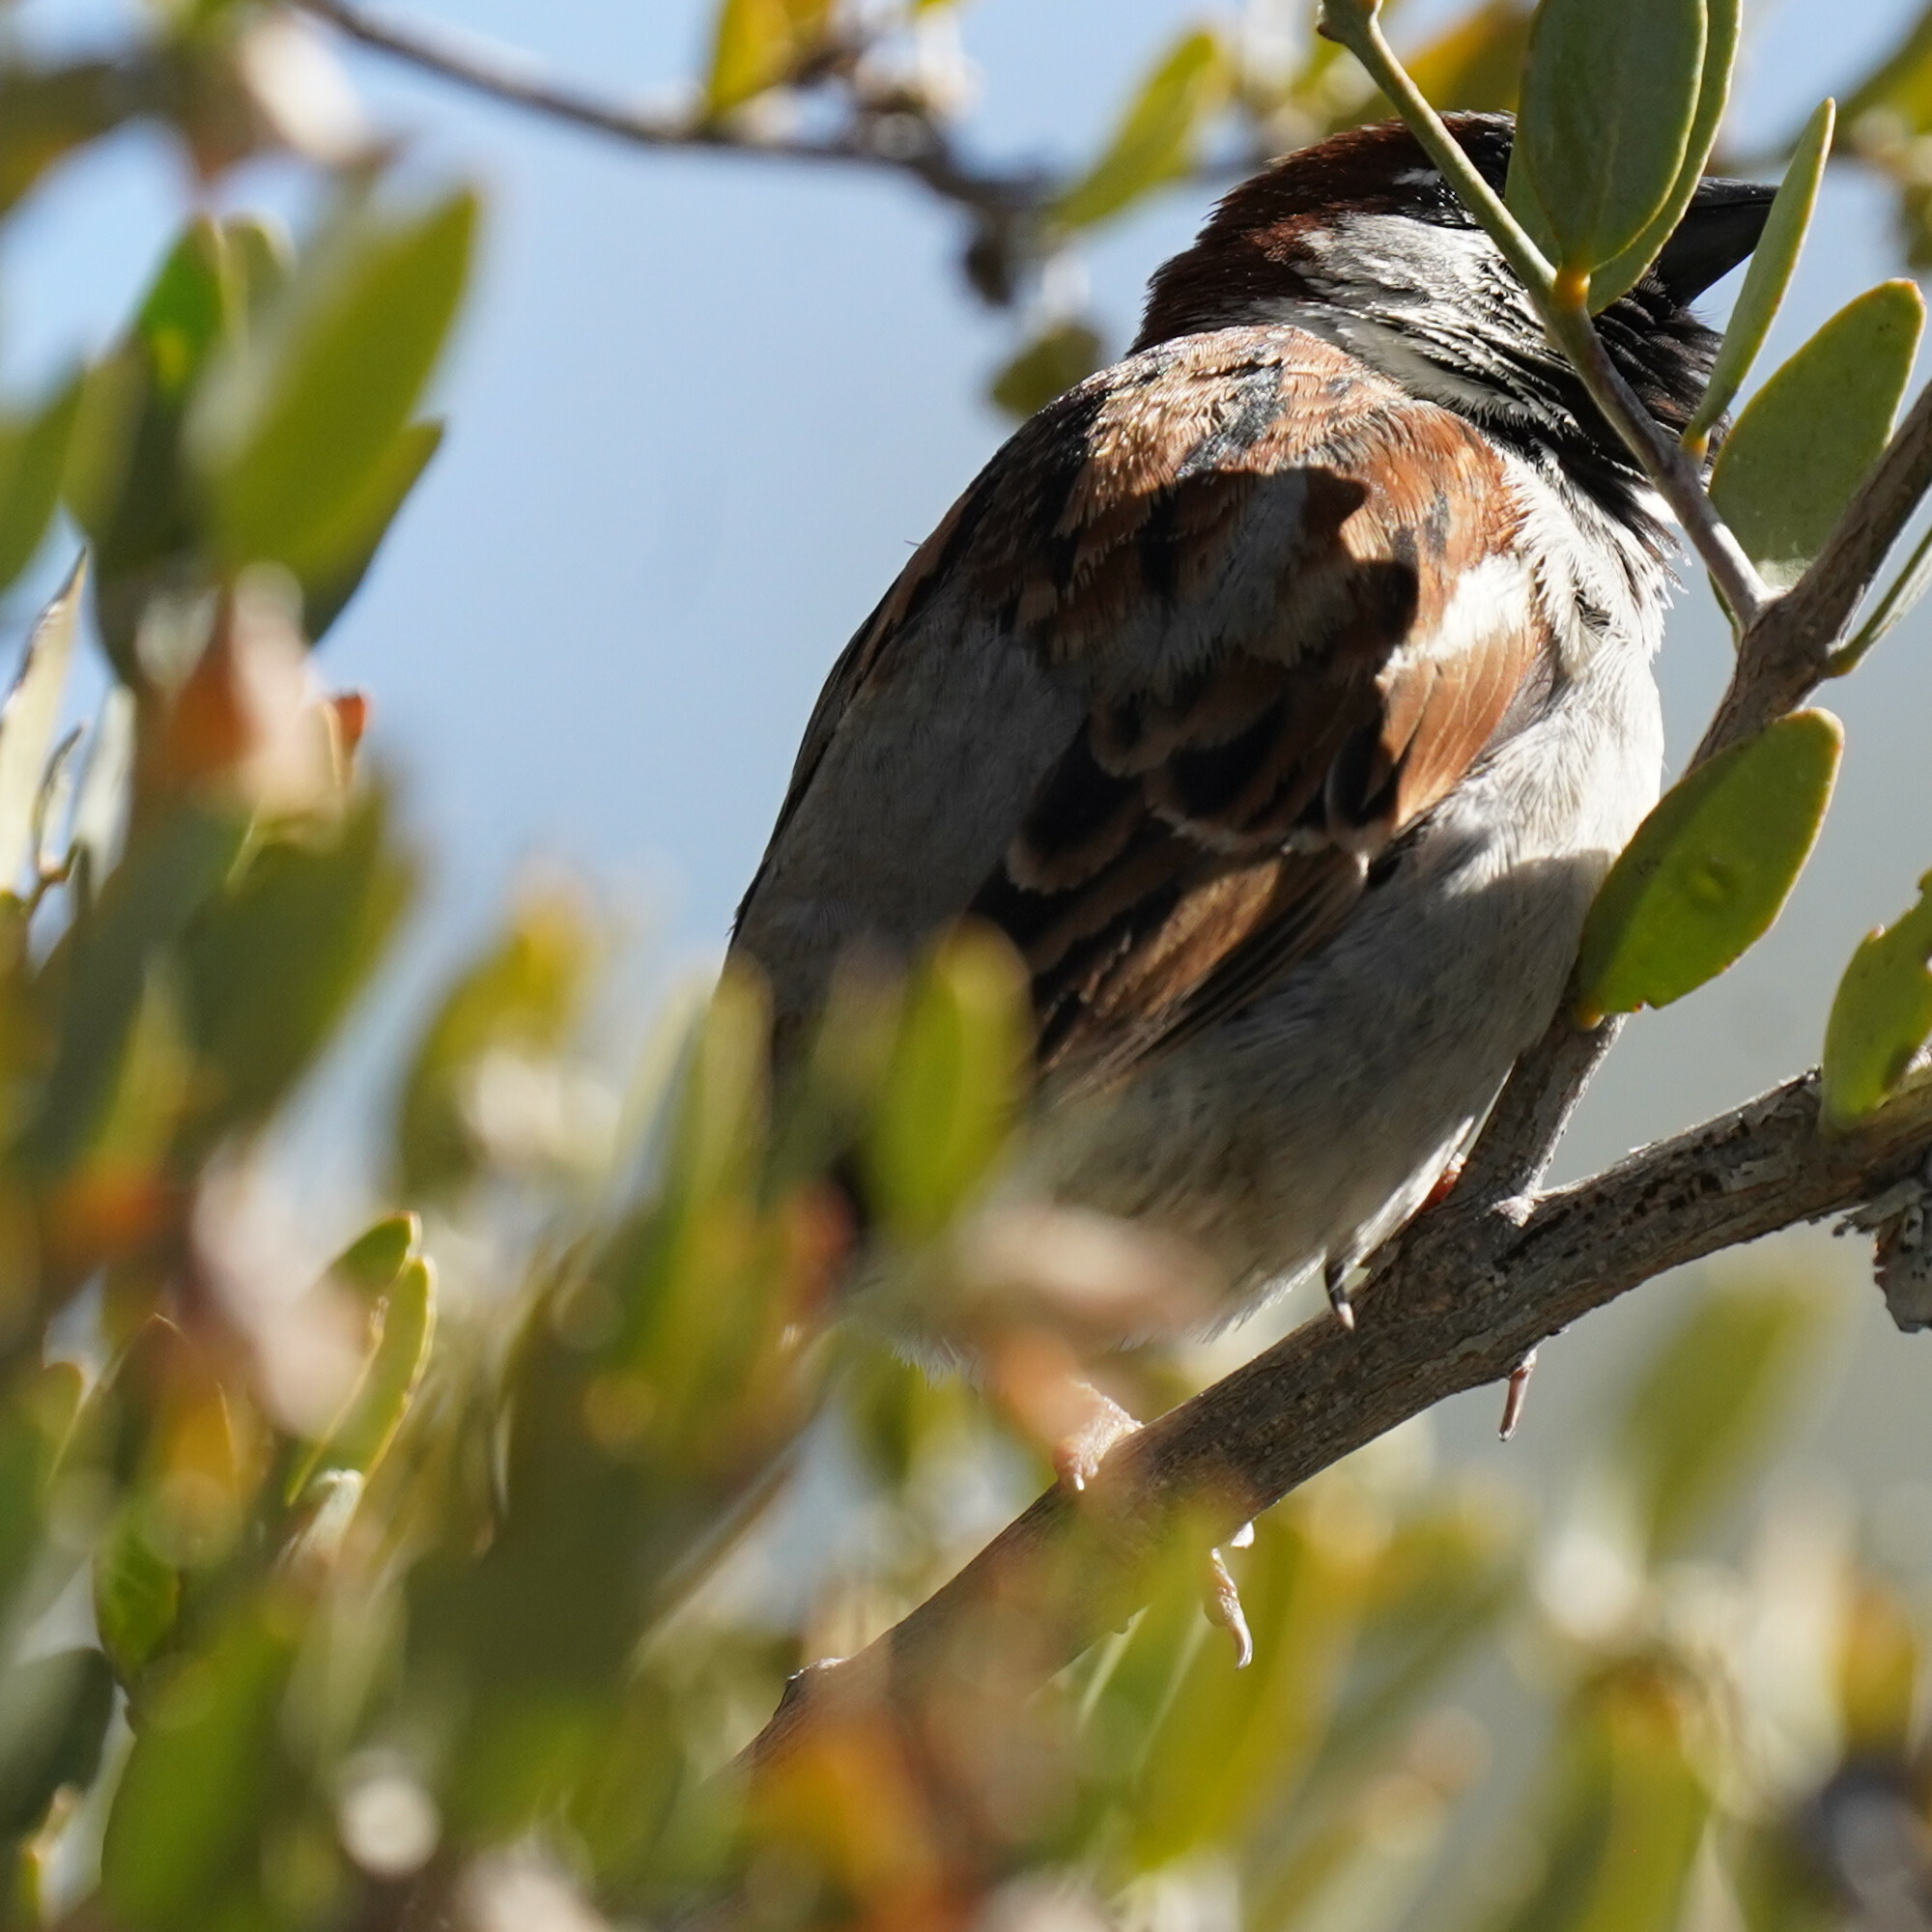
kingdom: Animalia
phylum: Chordata
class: Aves
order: Passeriformes
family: Passeridae
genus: Passer
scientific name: Passer domesticus
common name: House sparrow
